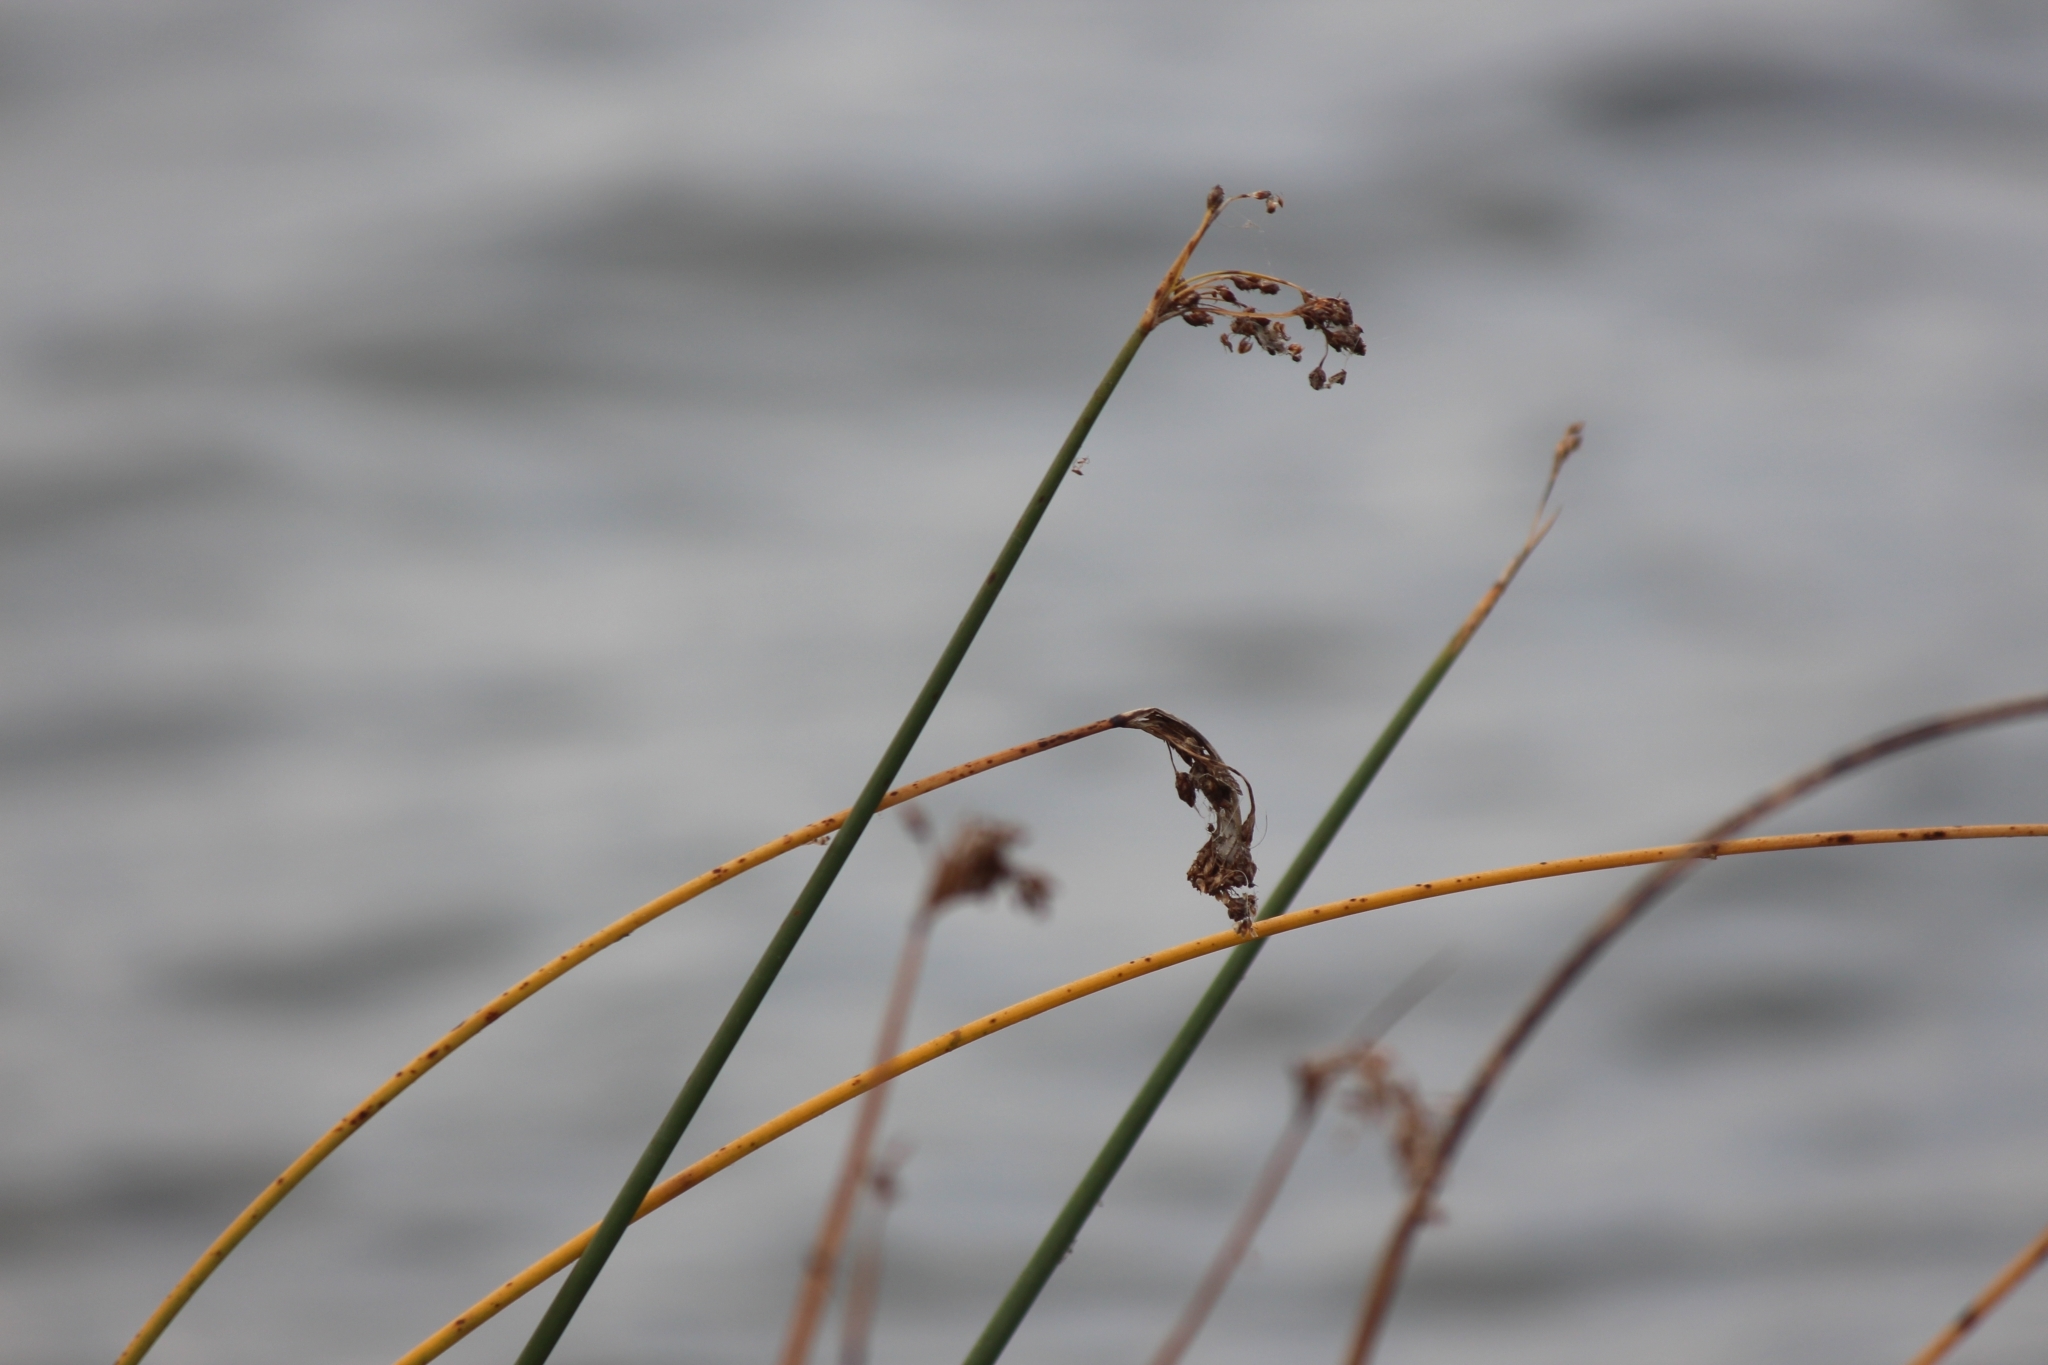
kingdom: Plantae
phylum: Tracheophyta
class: Liliopsida
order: Poales
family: Cyperaceae
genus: Schoenoplectus
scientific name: Schoenoplectus lacustris
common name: Common club-rush
